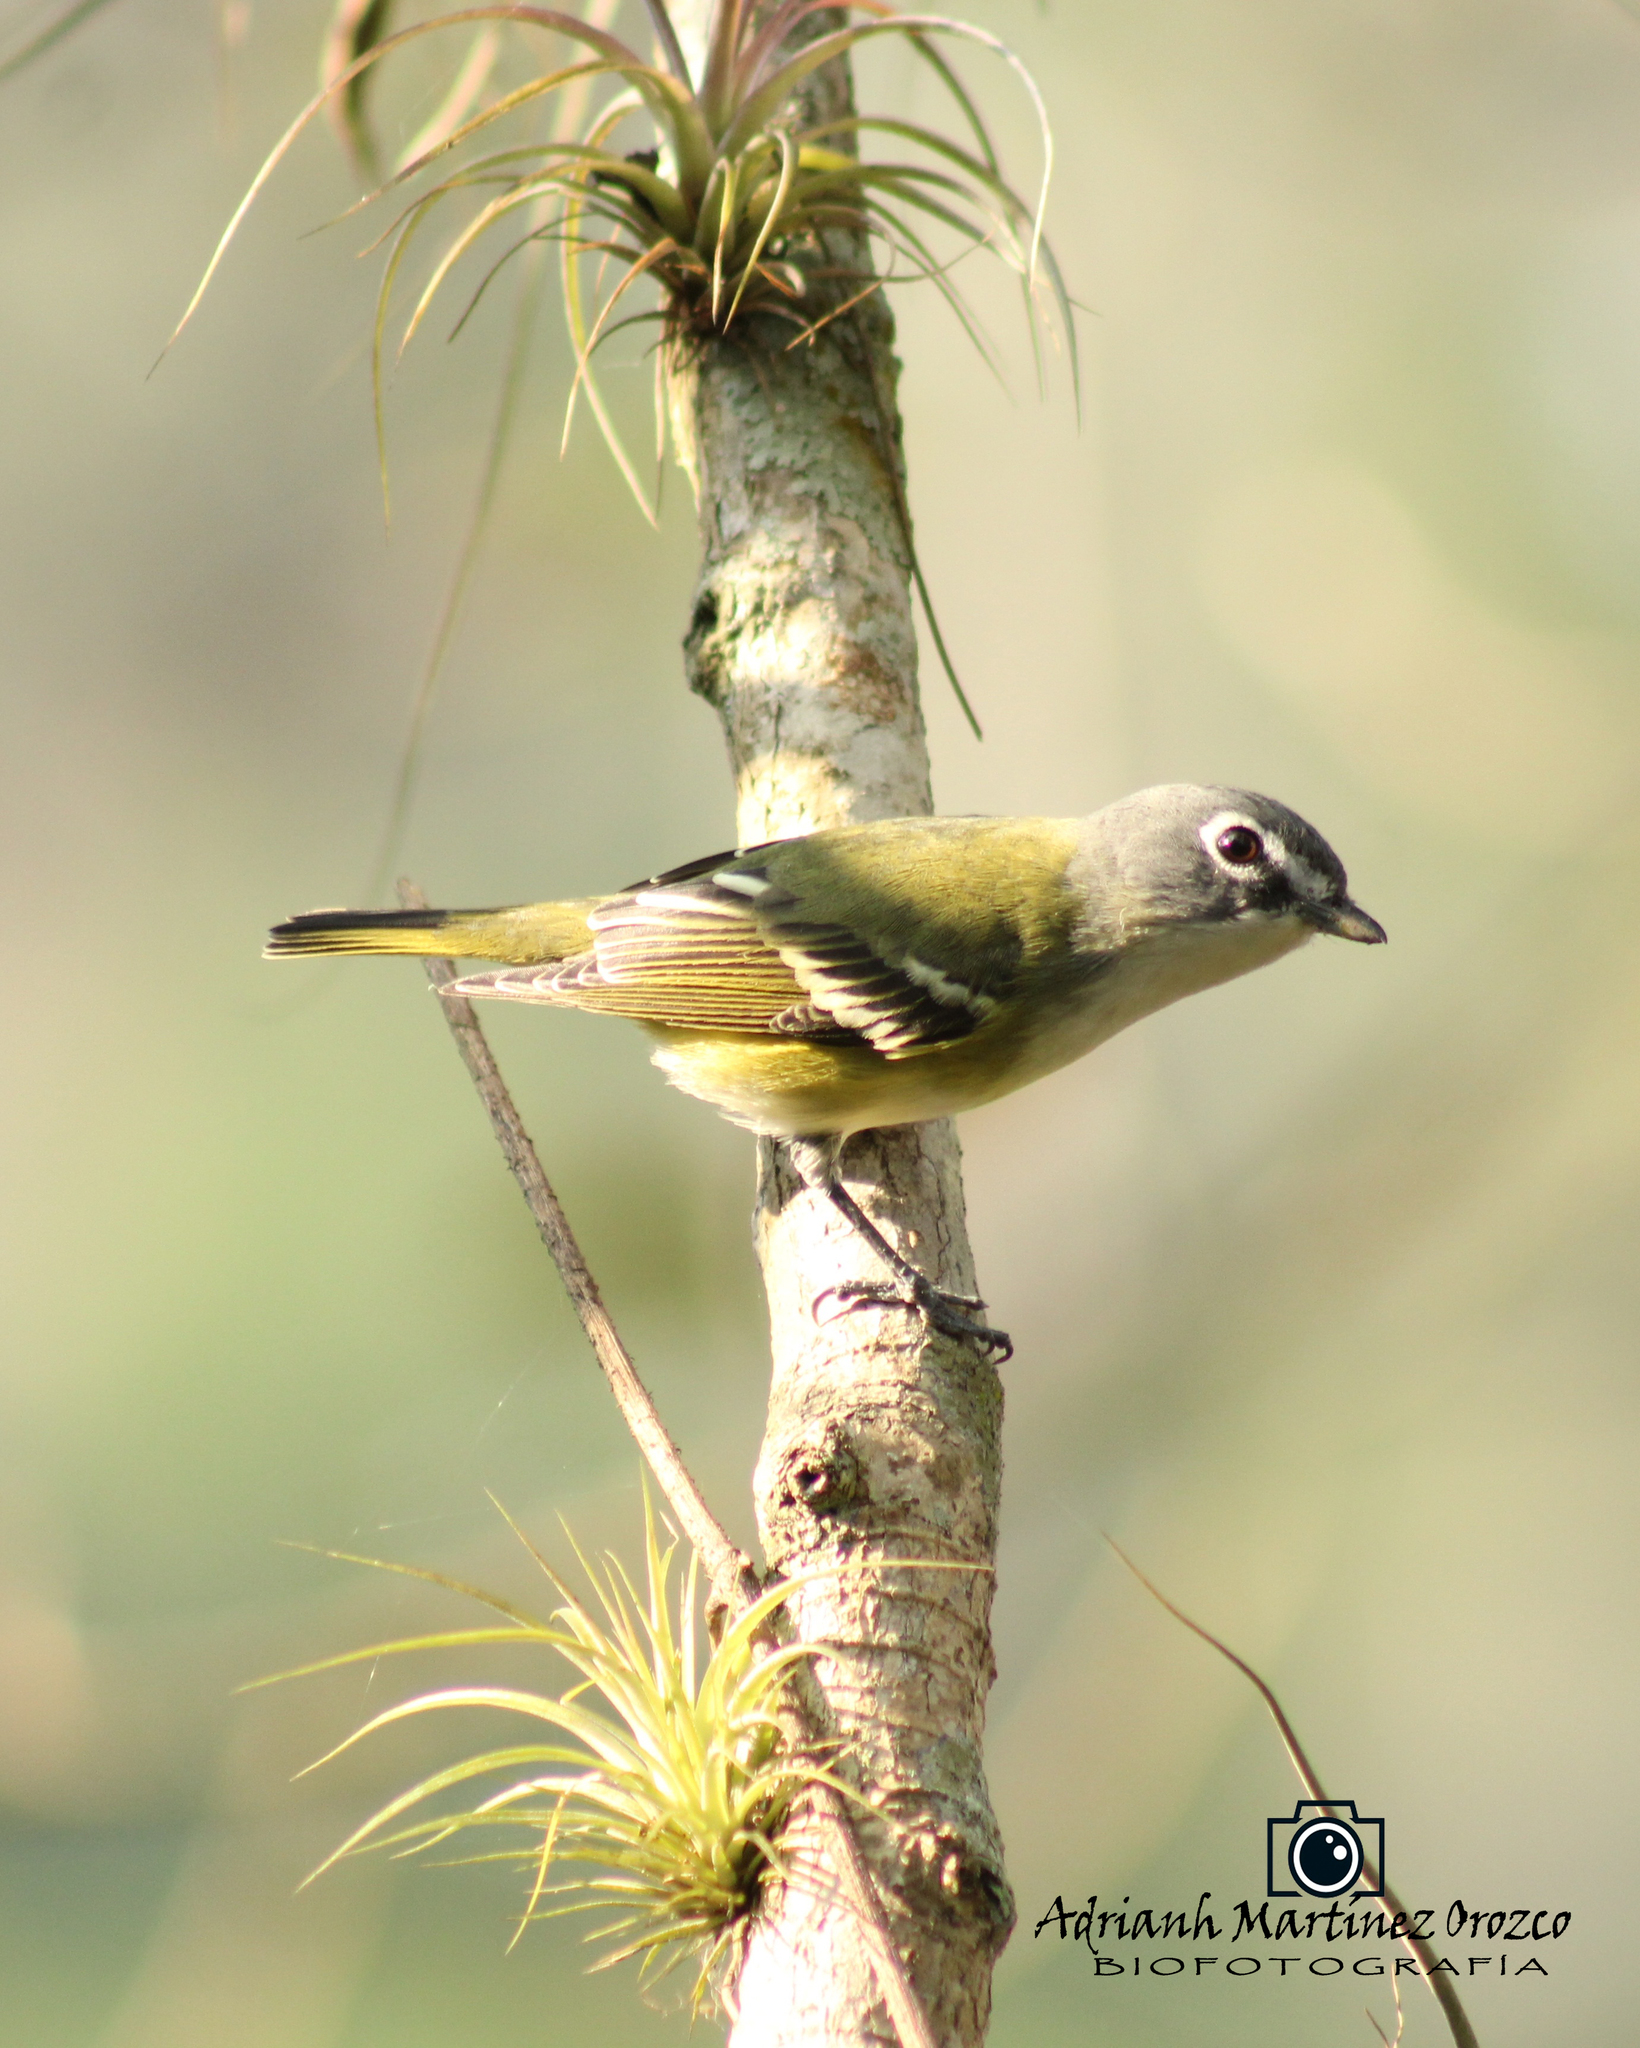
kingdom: Animalia
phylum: Chordata
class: Aves
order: Passeriformes
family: Vireonidae
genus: Vireo
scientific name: Vireo solitarius
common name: Blue-headed vireo
